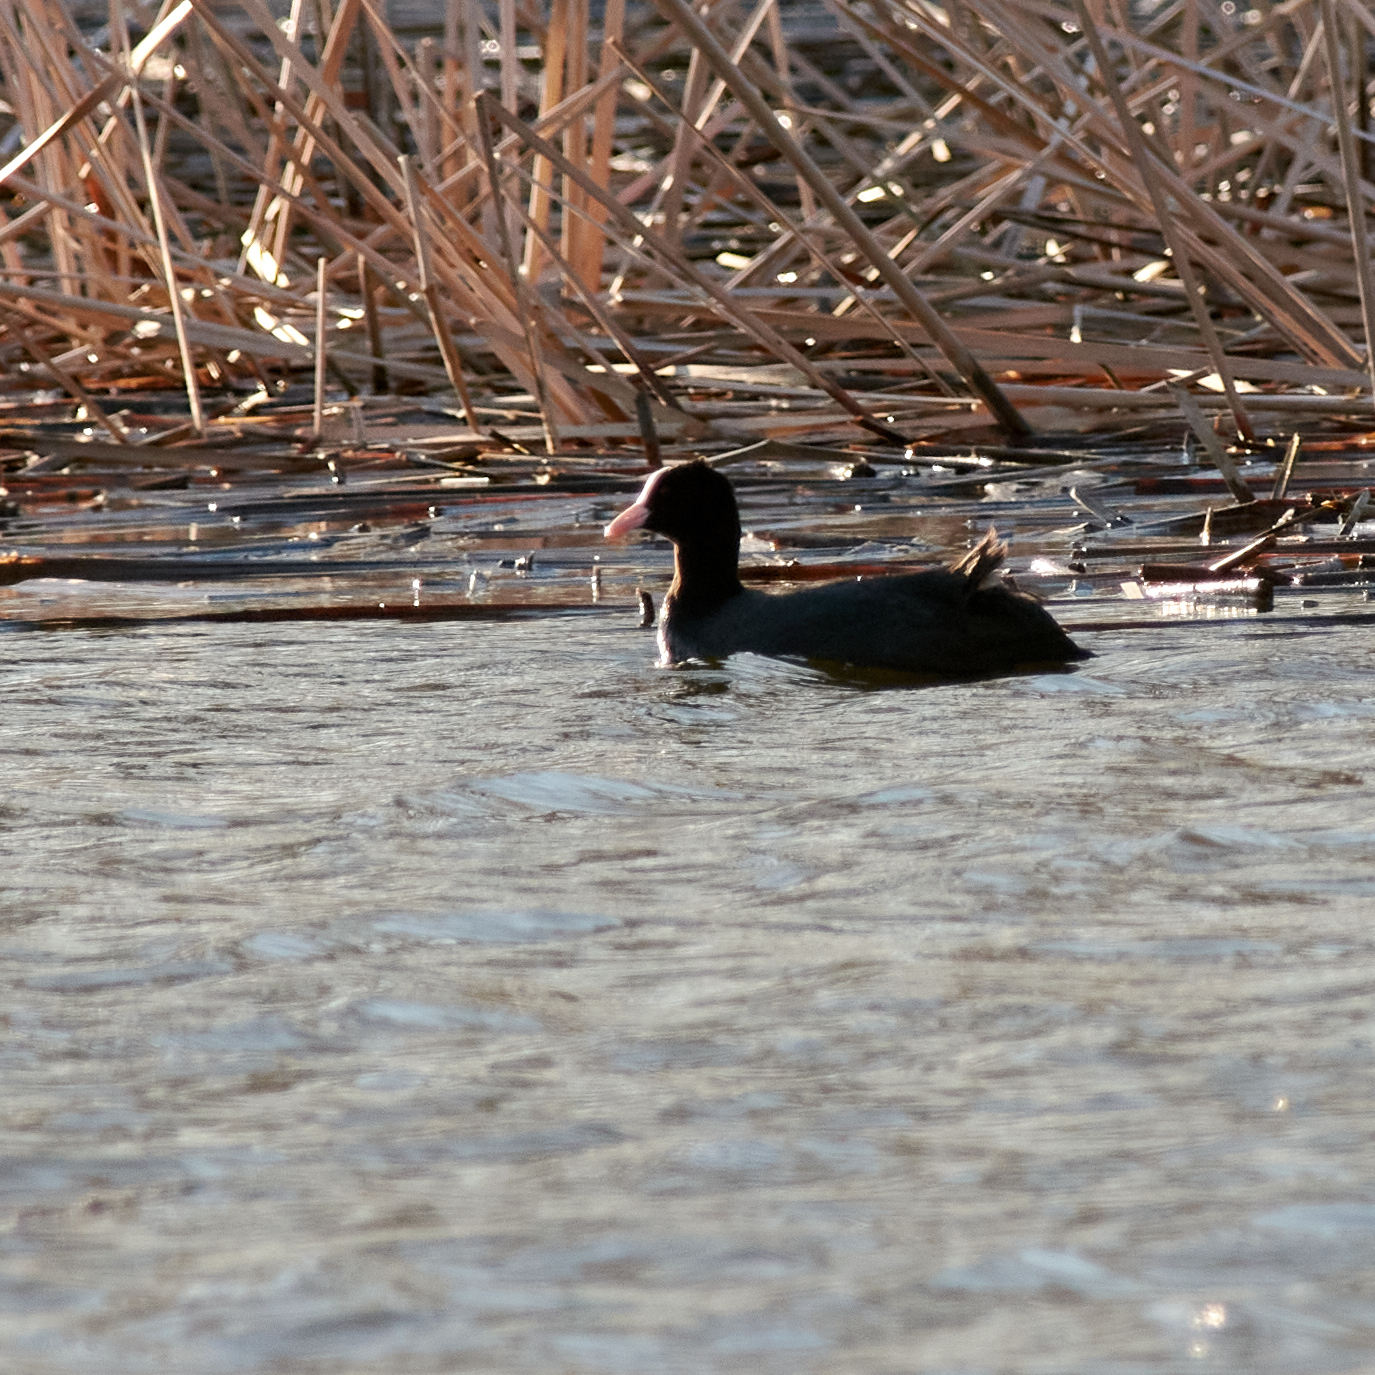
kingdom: Animalia
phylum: Chordata
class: Aves
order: Gruiformes
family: Rallidae
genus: Fulica
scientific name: Fulica atra
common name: Eurasian coot
